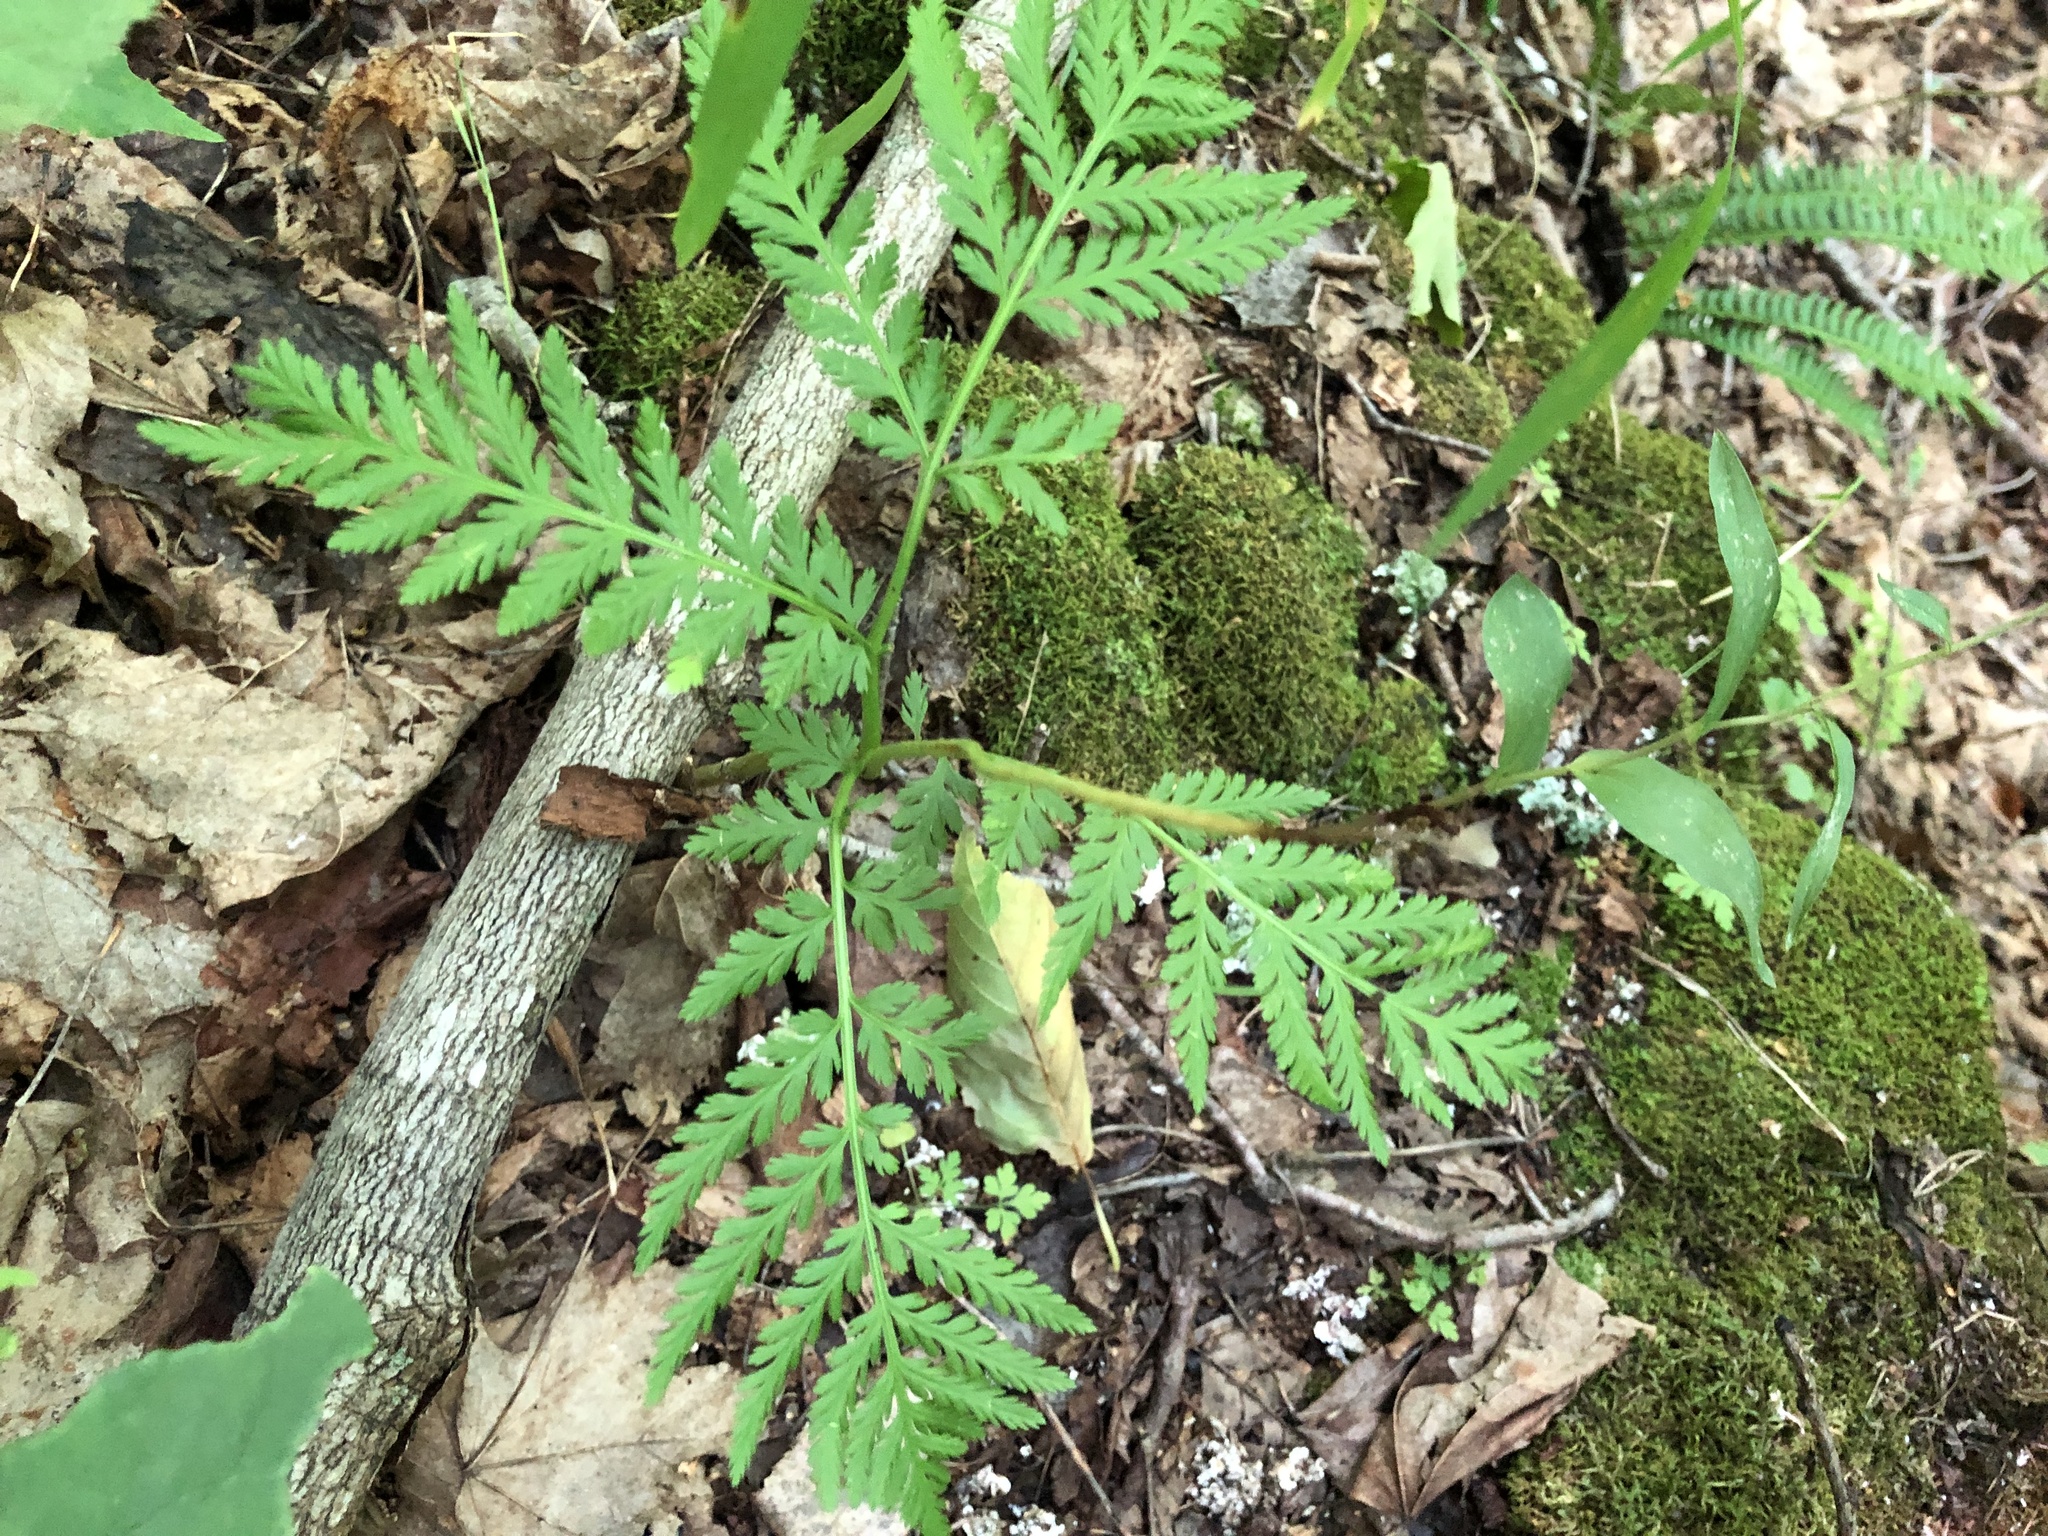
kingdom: Plantae
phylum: Tracheophyta
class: Polypodiopsida
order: Ophioglossales
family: Ophioglossaceae
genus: Botrypus
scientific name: Botrypus virginianus
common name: Common grapefern
